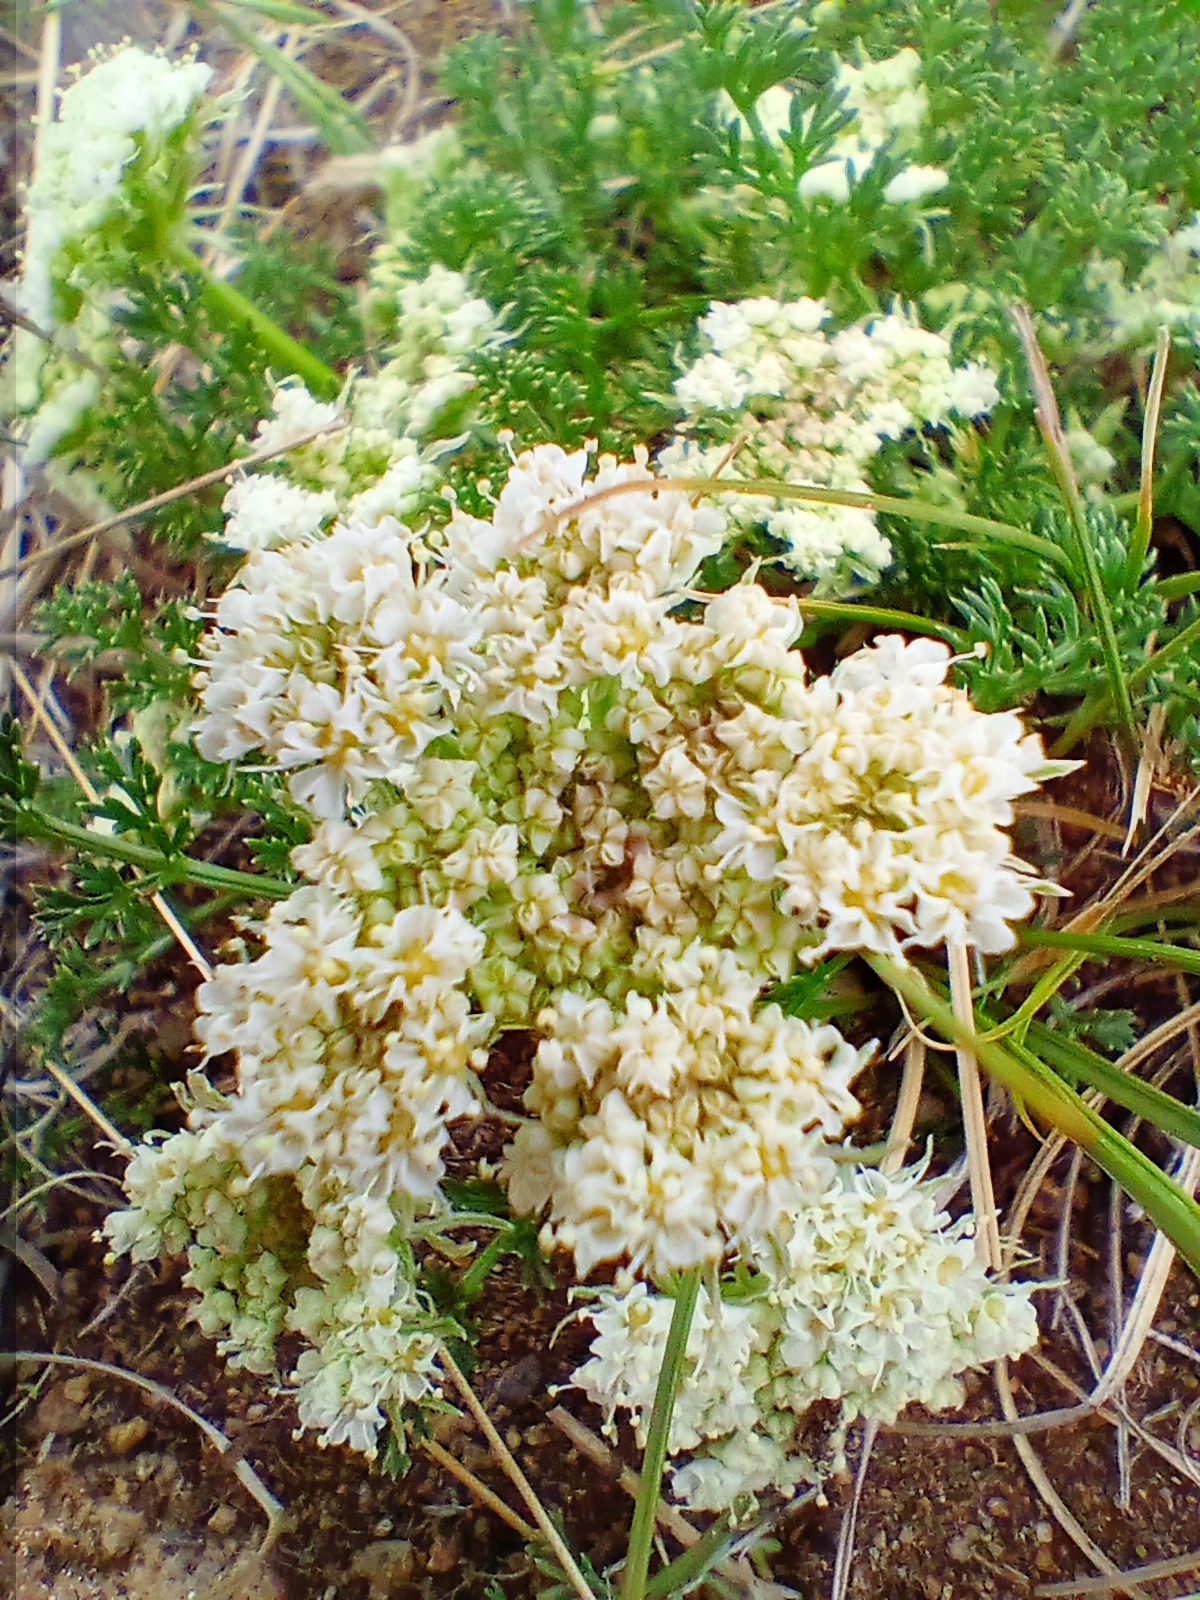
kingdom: Plantae
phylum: Tracheophyta
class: Magnoliopsida
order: Apiales
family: Apiaceae
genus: Ferulopsis
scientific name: Ferulopsis hystrix
